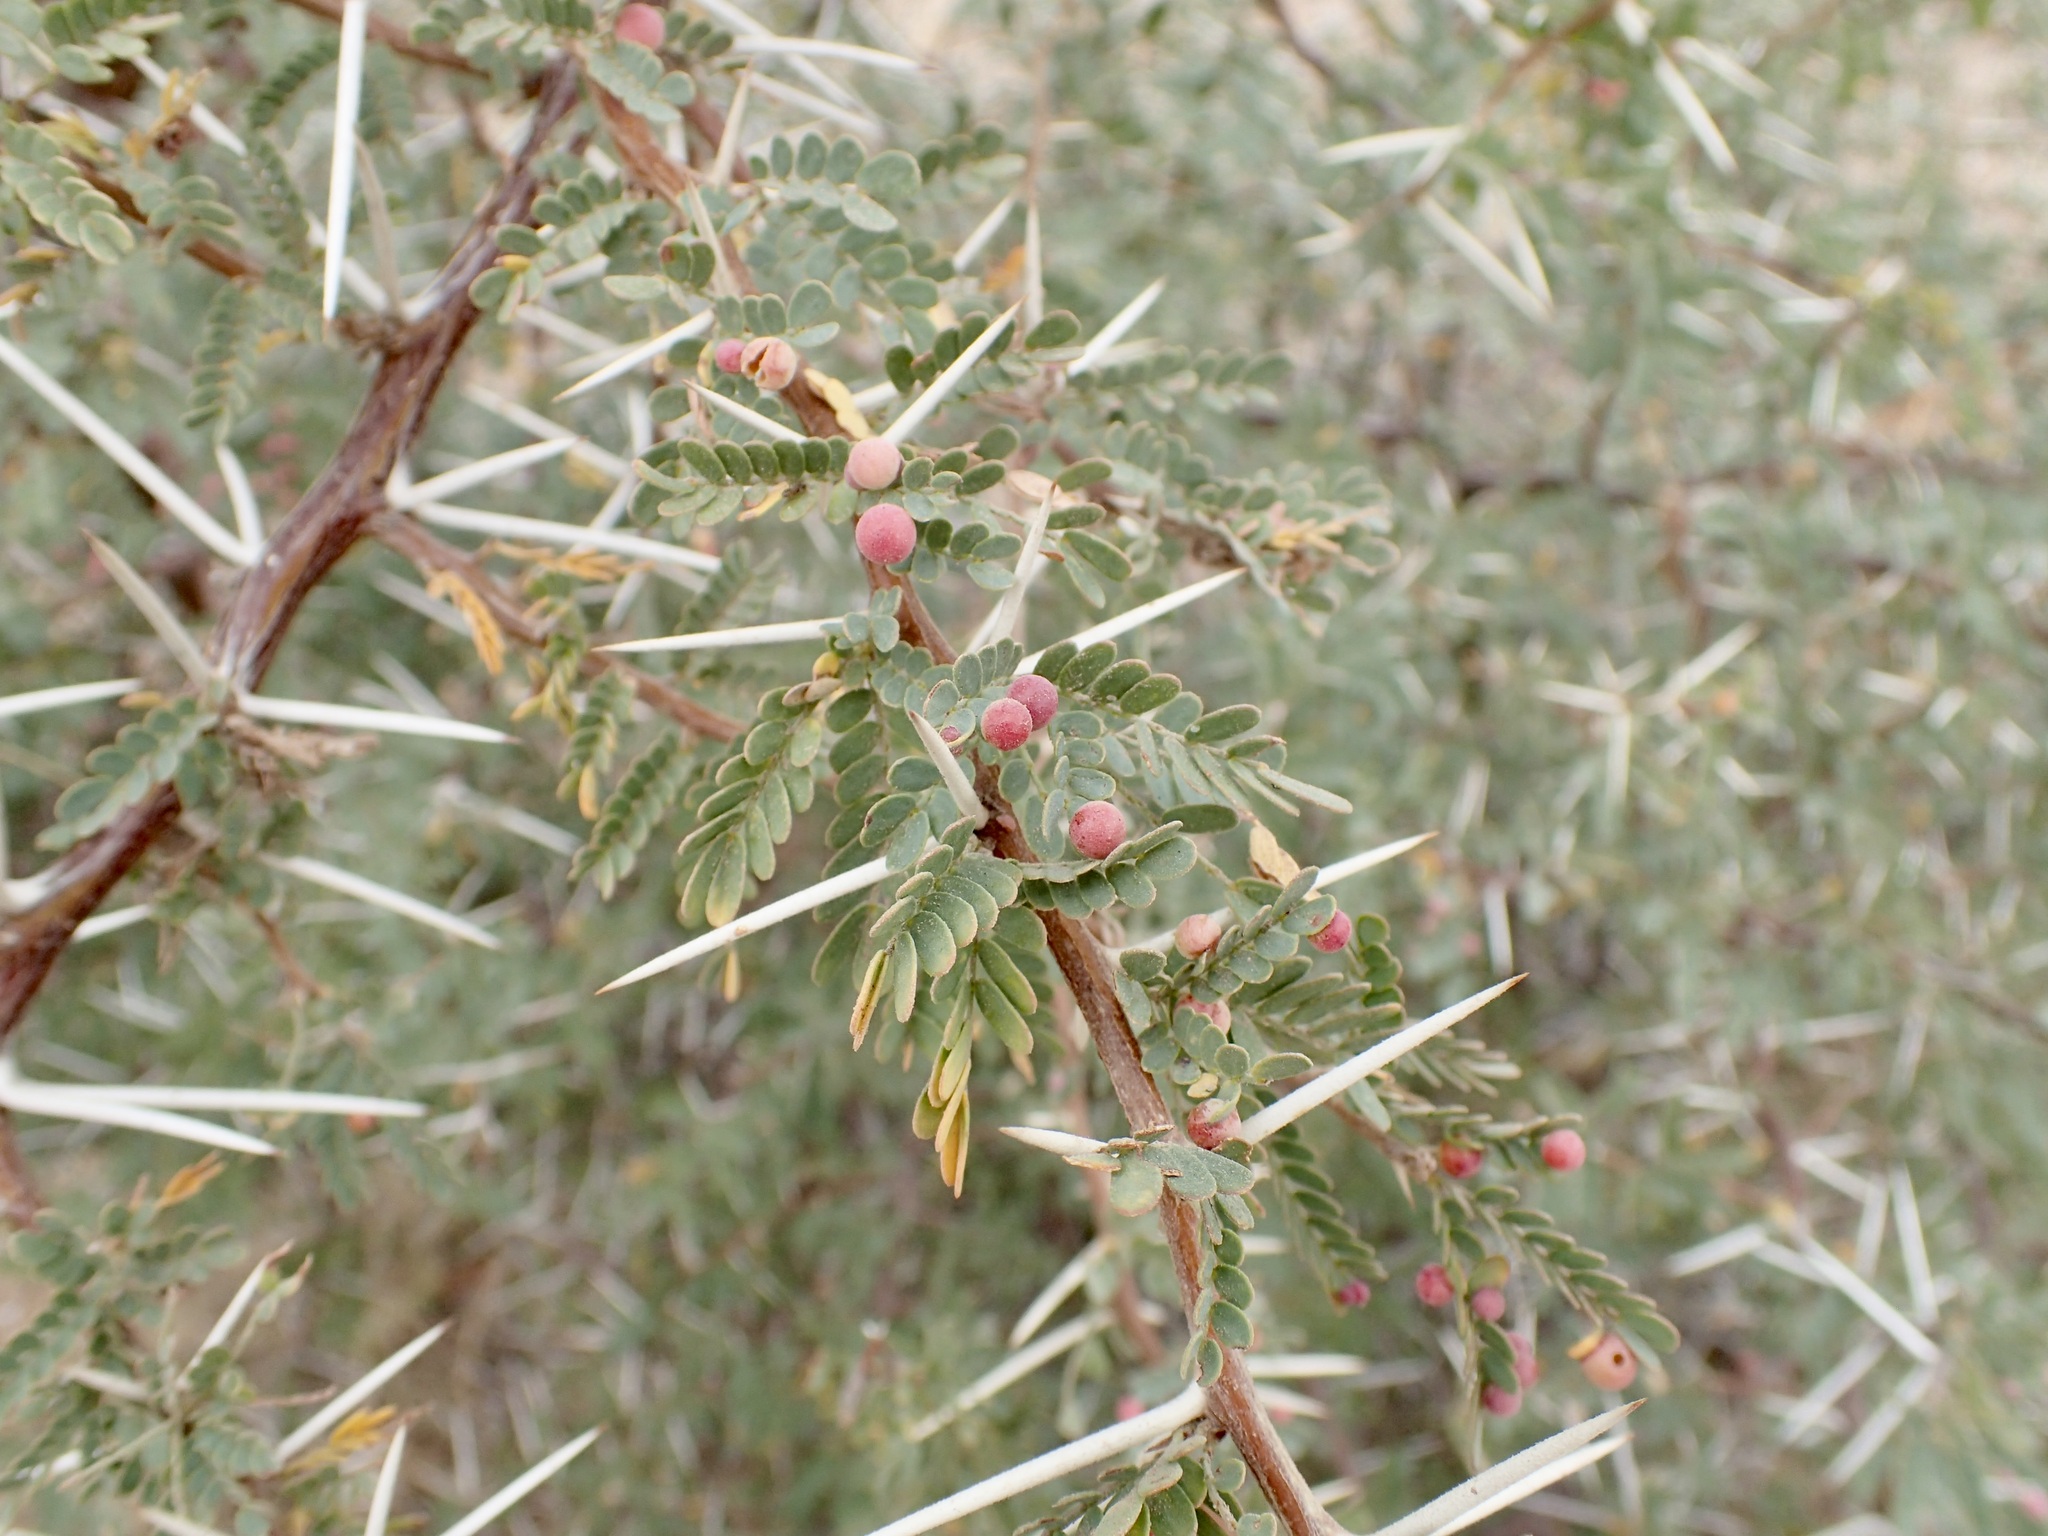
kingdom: Plantae
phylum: Tracheophyta
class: Magnoliopsida
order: Fabales
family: Fabaceae
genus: Prosopis
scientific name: Prosopis palmeri
